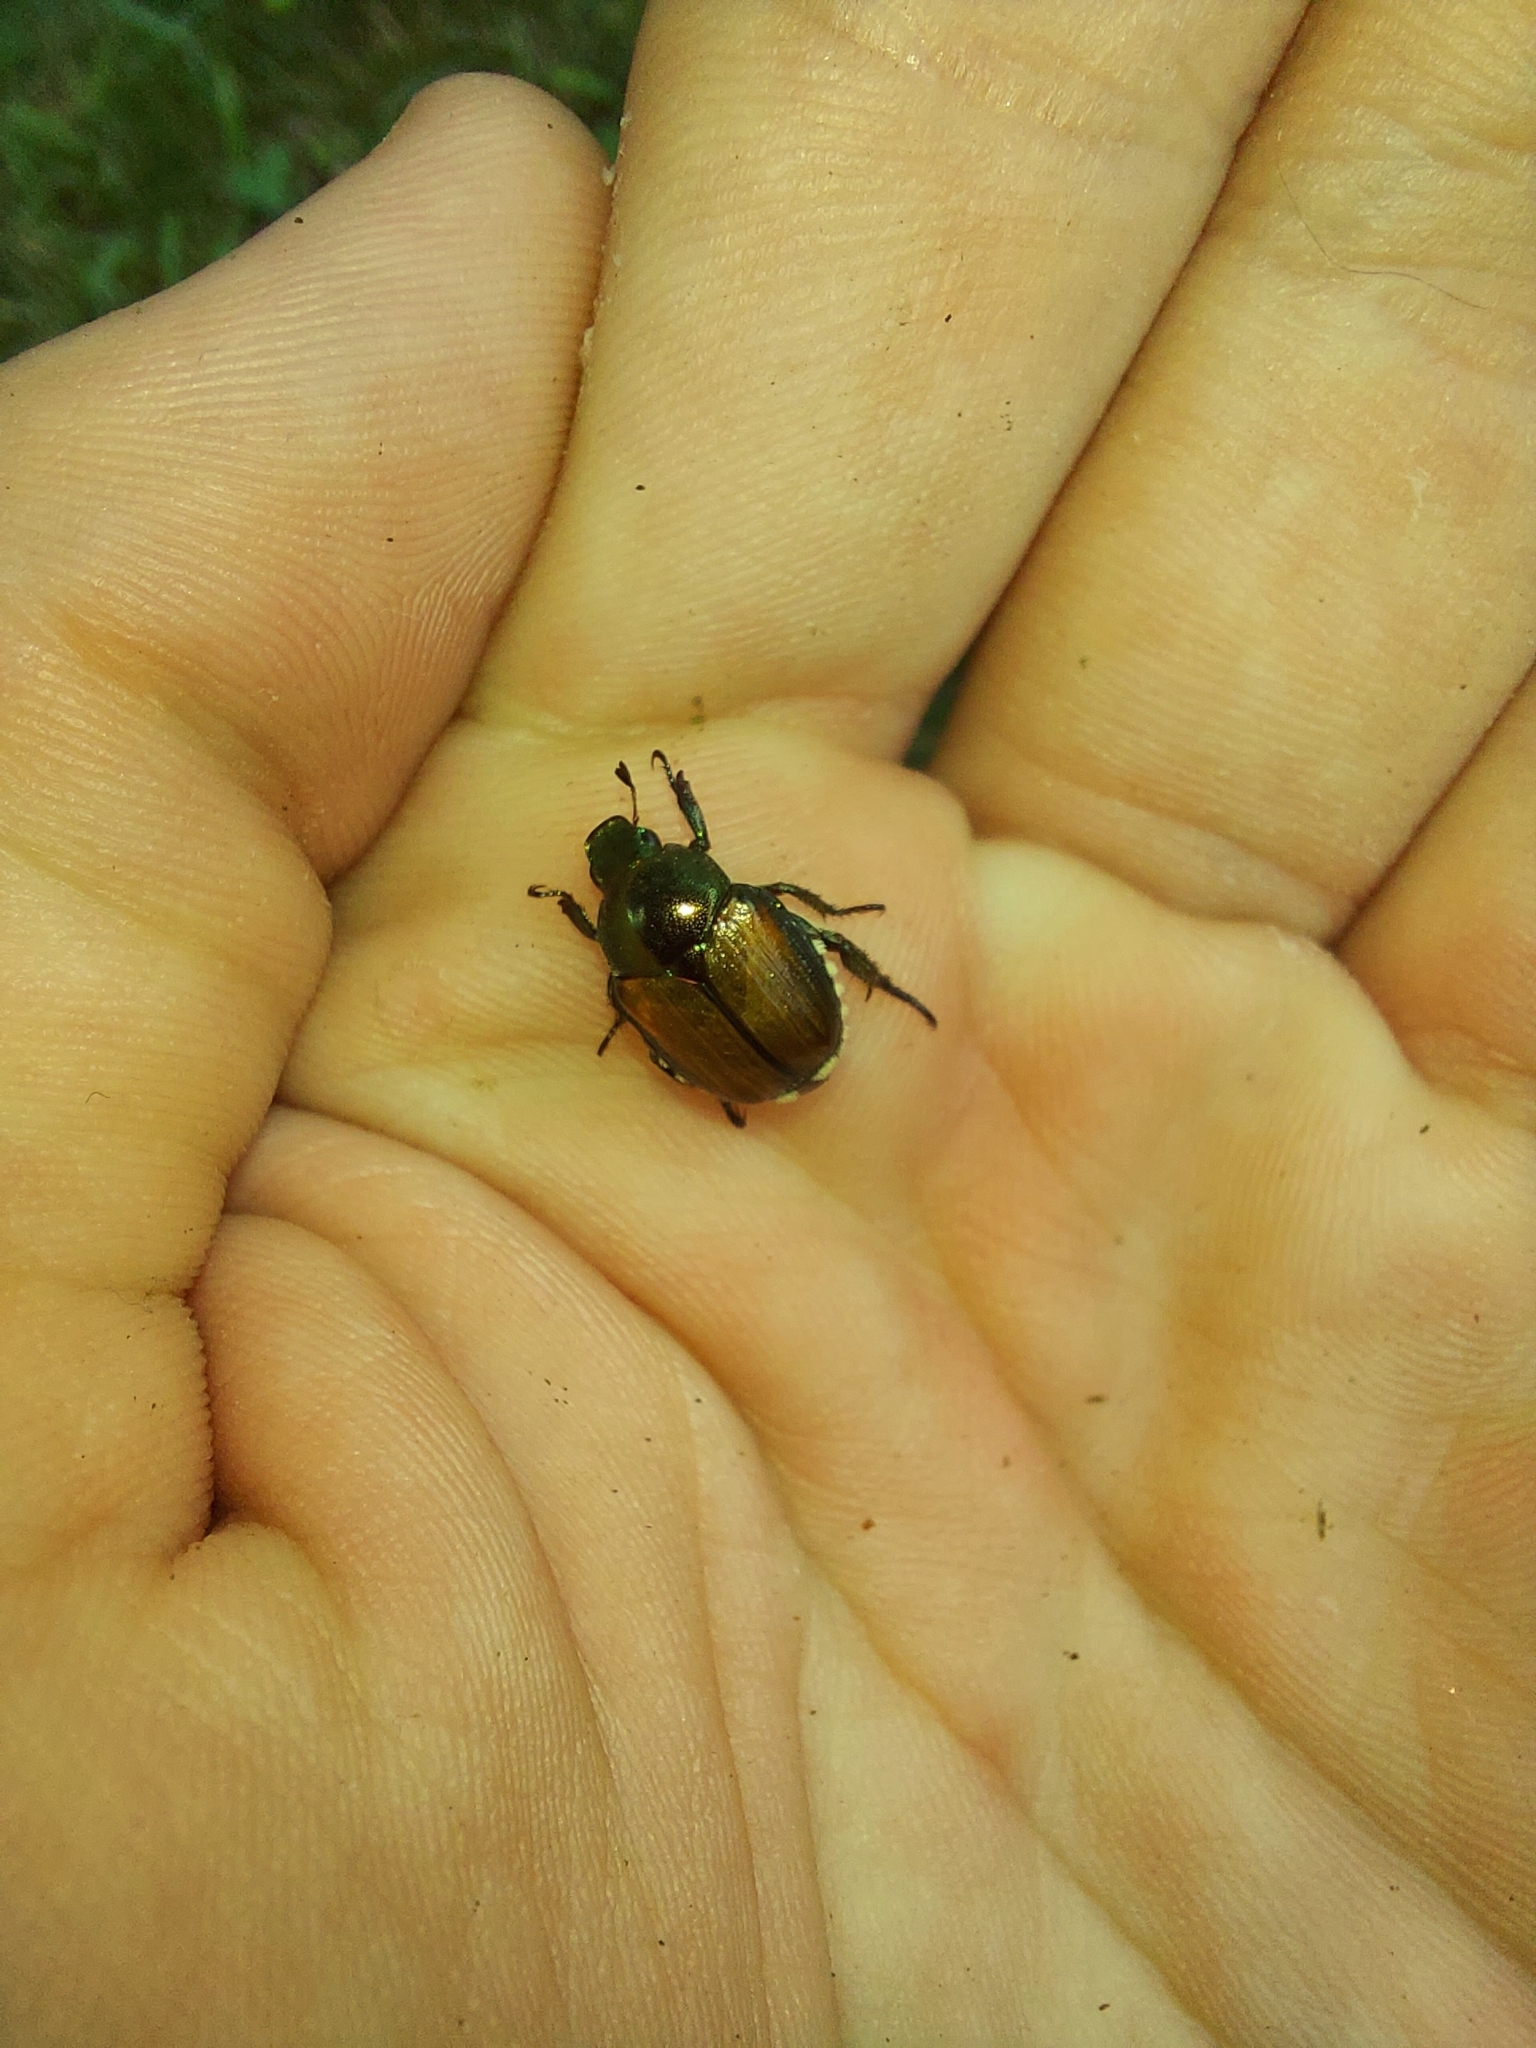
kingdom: Animalia
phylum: Arthropoda
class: Insecta
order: Coleoptera
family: Scarabaeidae
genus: Popillia
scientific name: Popillia japonica
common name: Japanese beetle
